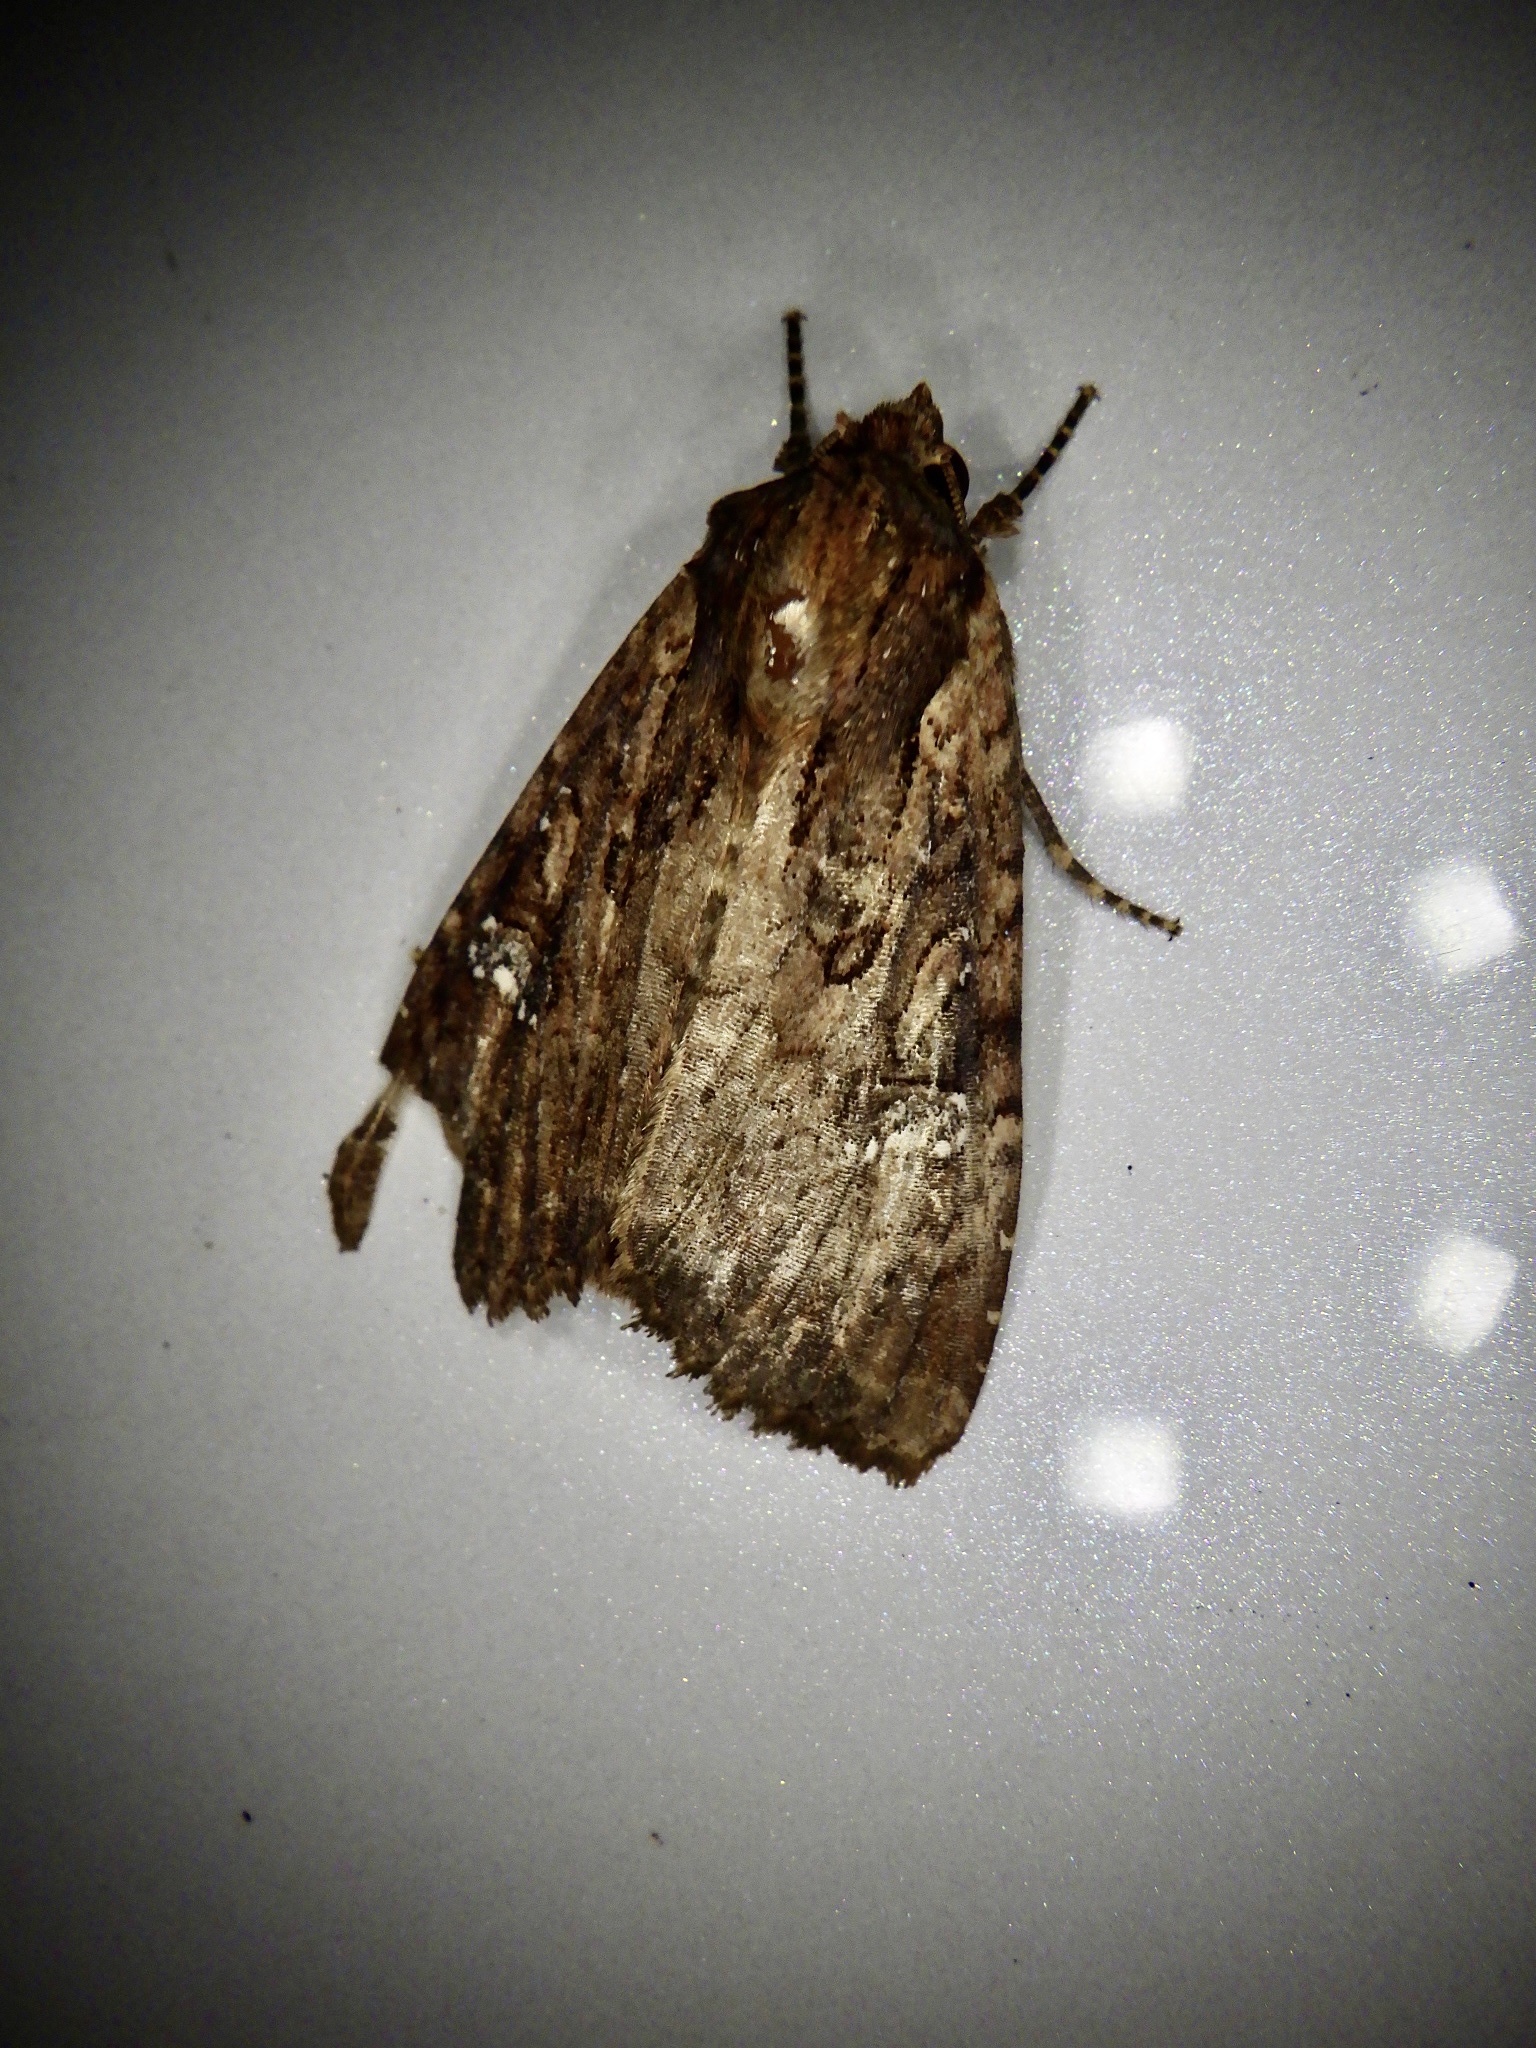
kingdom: Animalia
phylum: Arthropoda
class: Insecta
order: Lepidoptera
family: Noctuidae
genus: Apamea
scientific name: Apamea aquila
